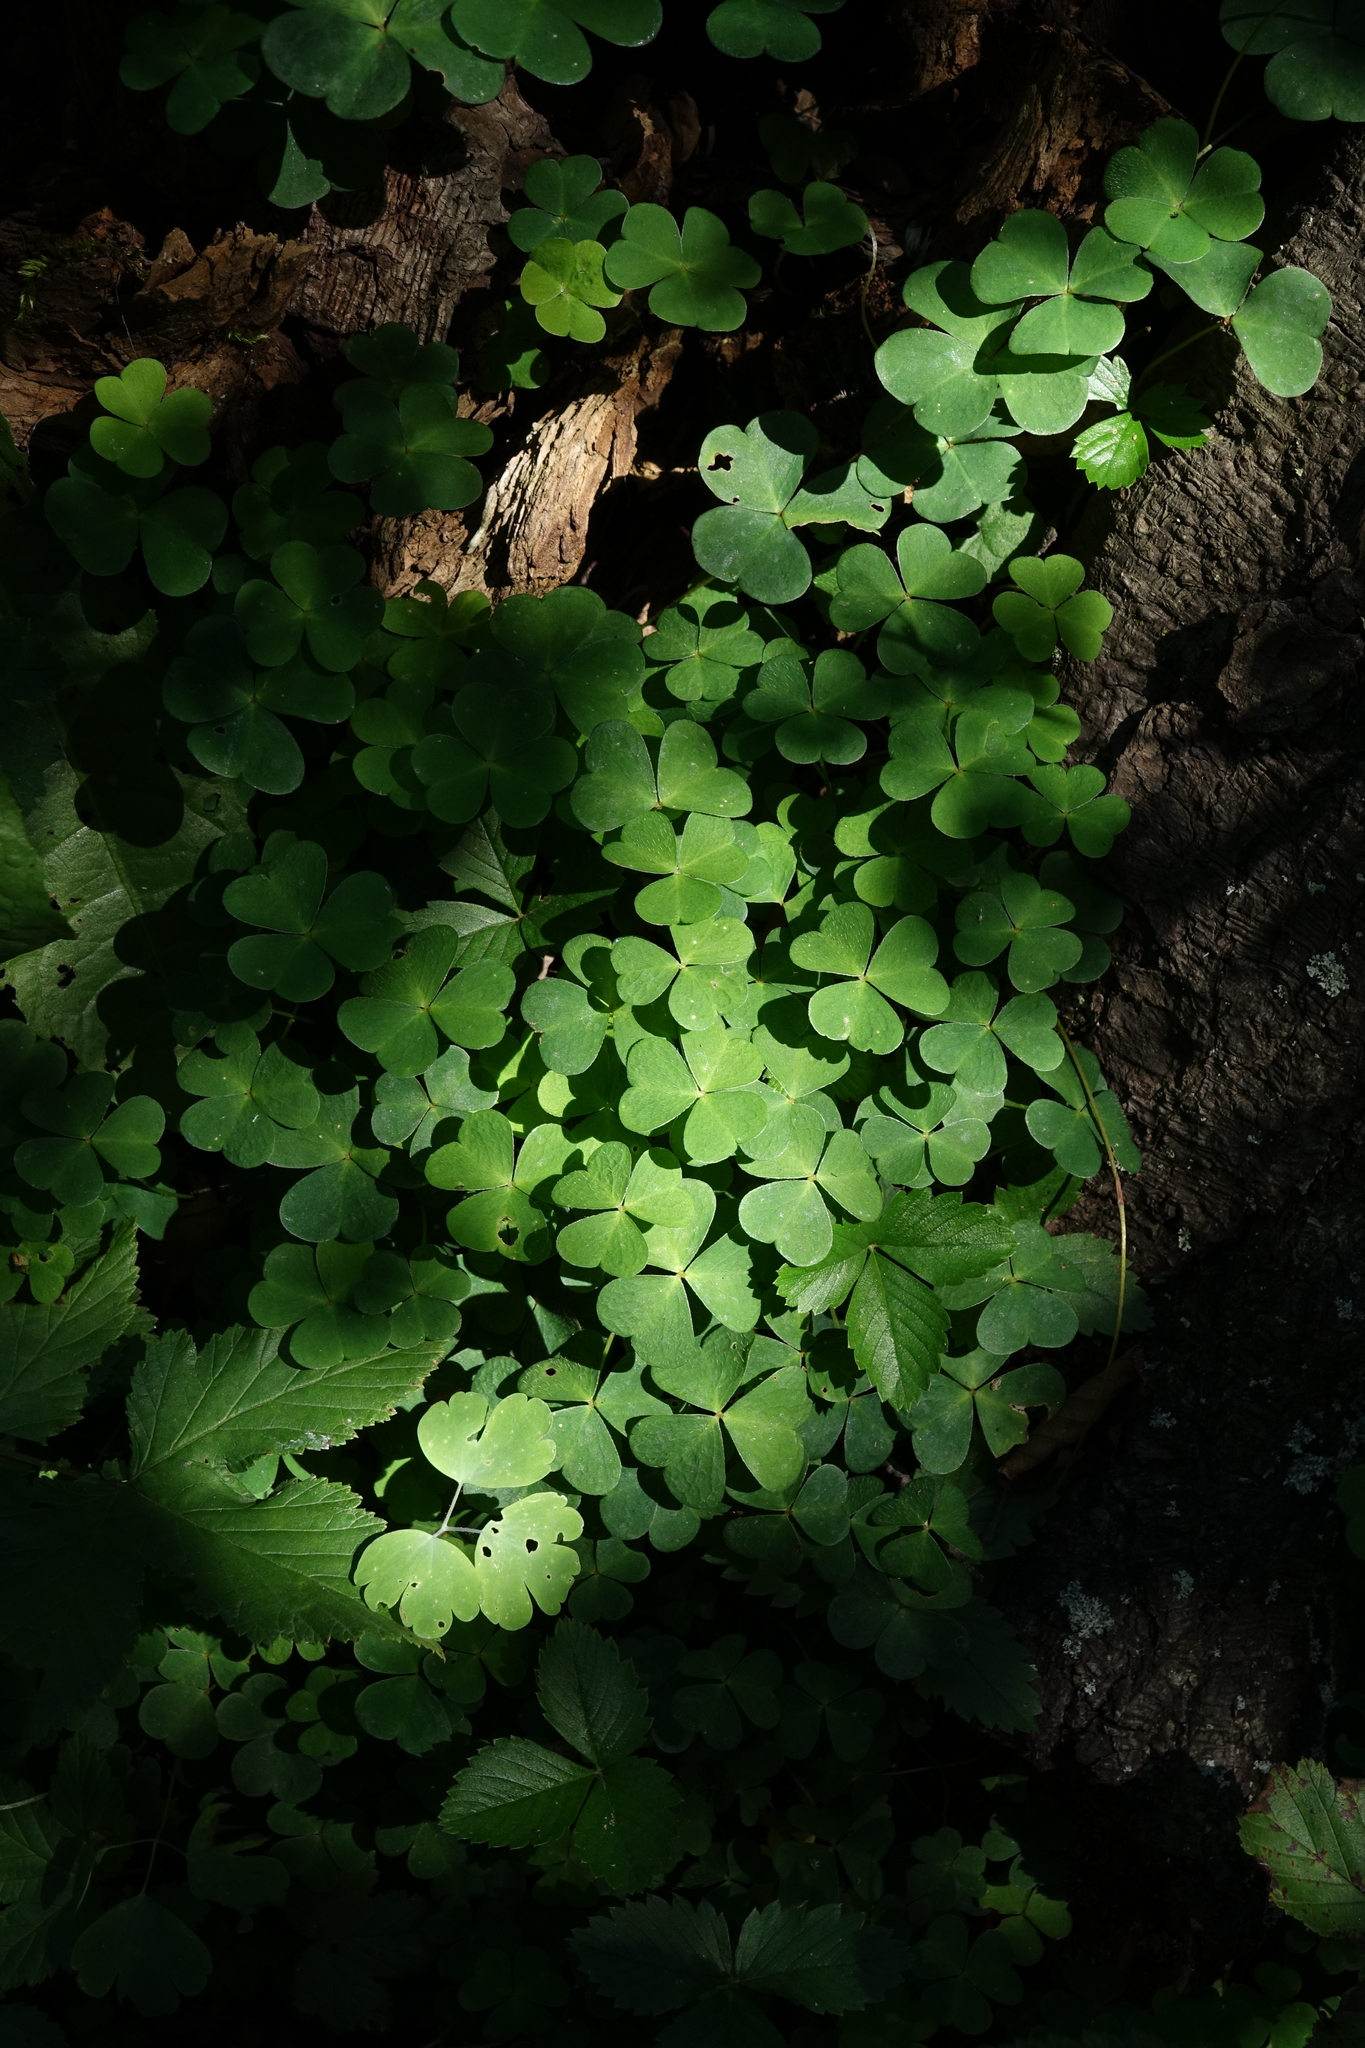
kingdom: Plantae
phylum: Tracheophyta
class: Magnoliopsida
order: Oxalidales
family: Oxalidaceae
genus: Oxalis
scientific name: Oxalis acetosella
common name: Wood-sorrel
